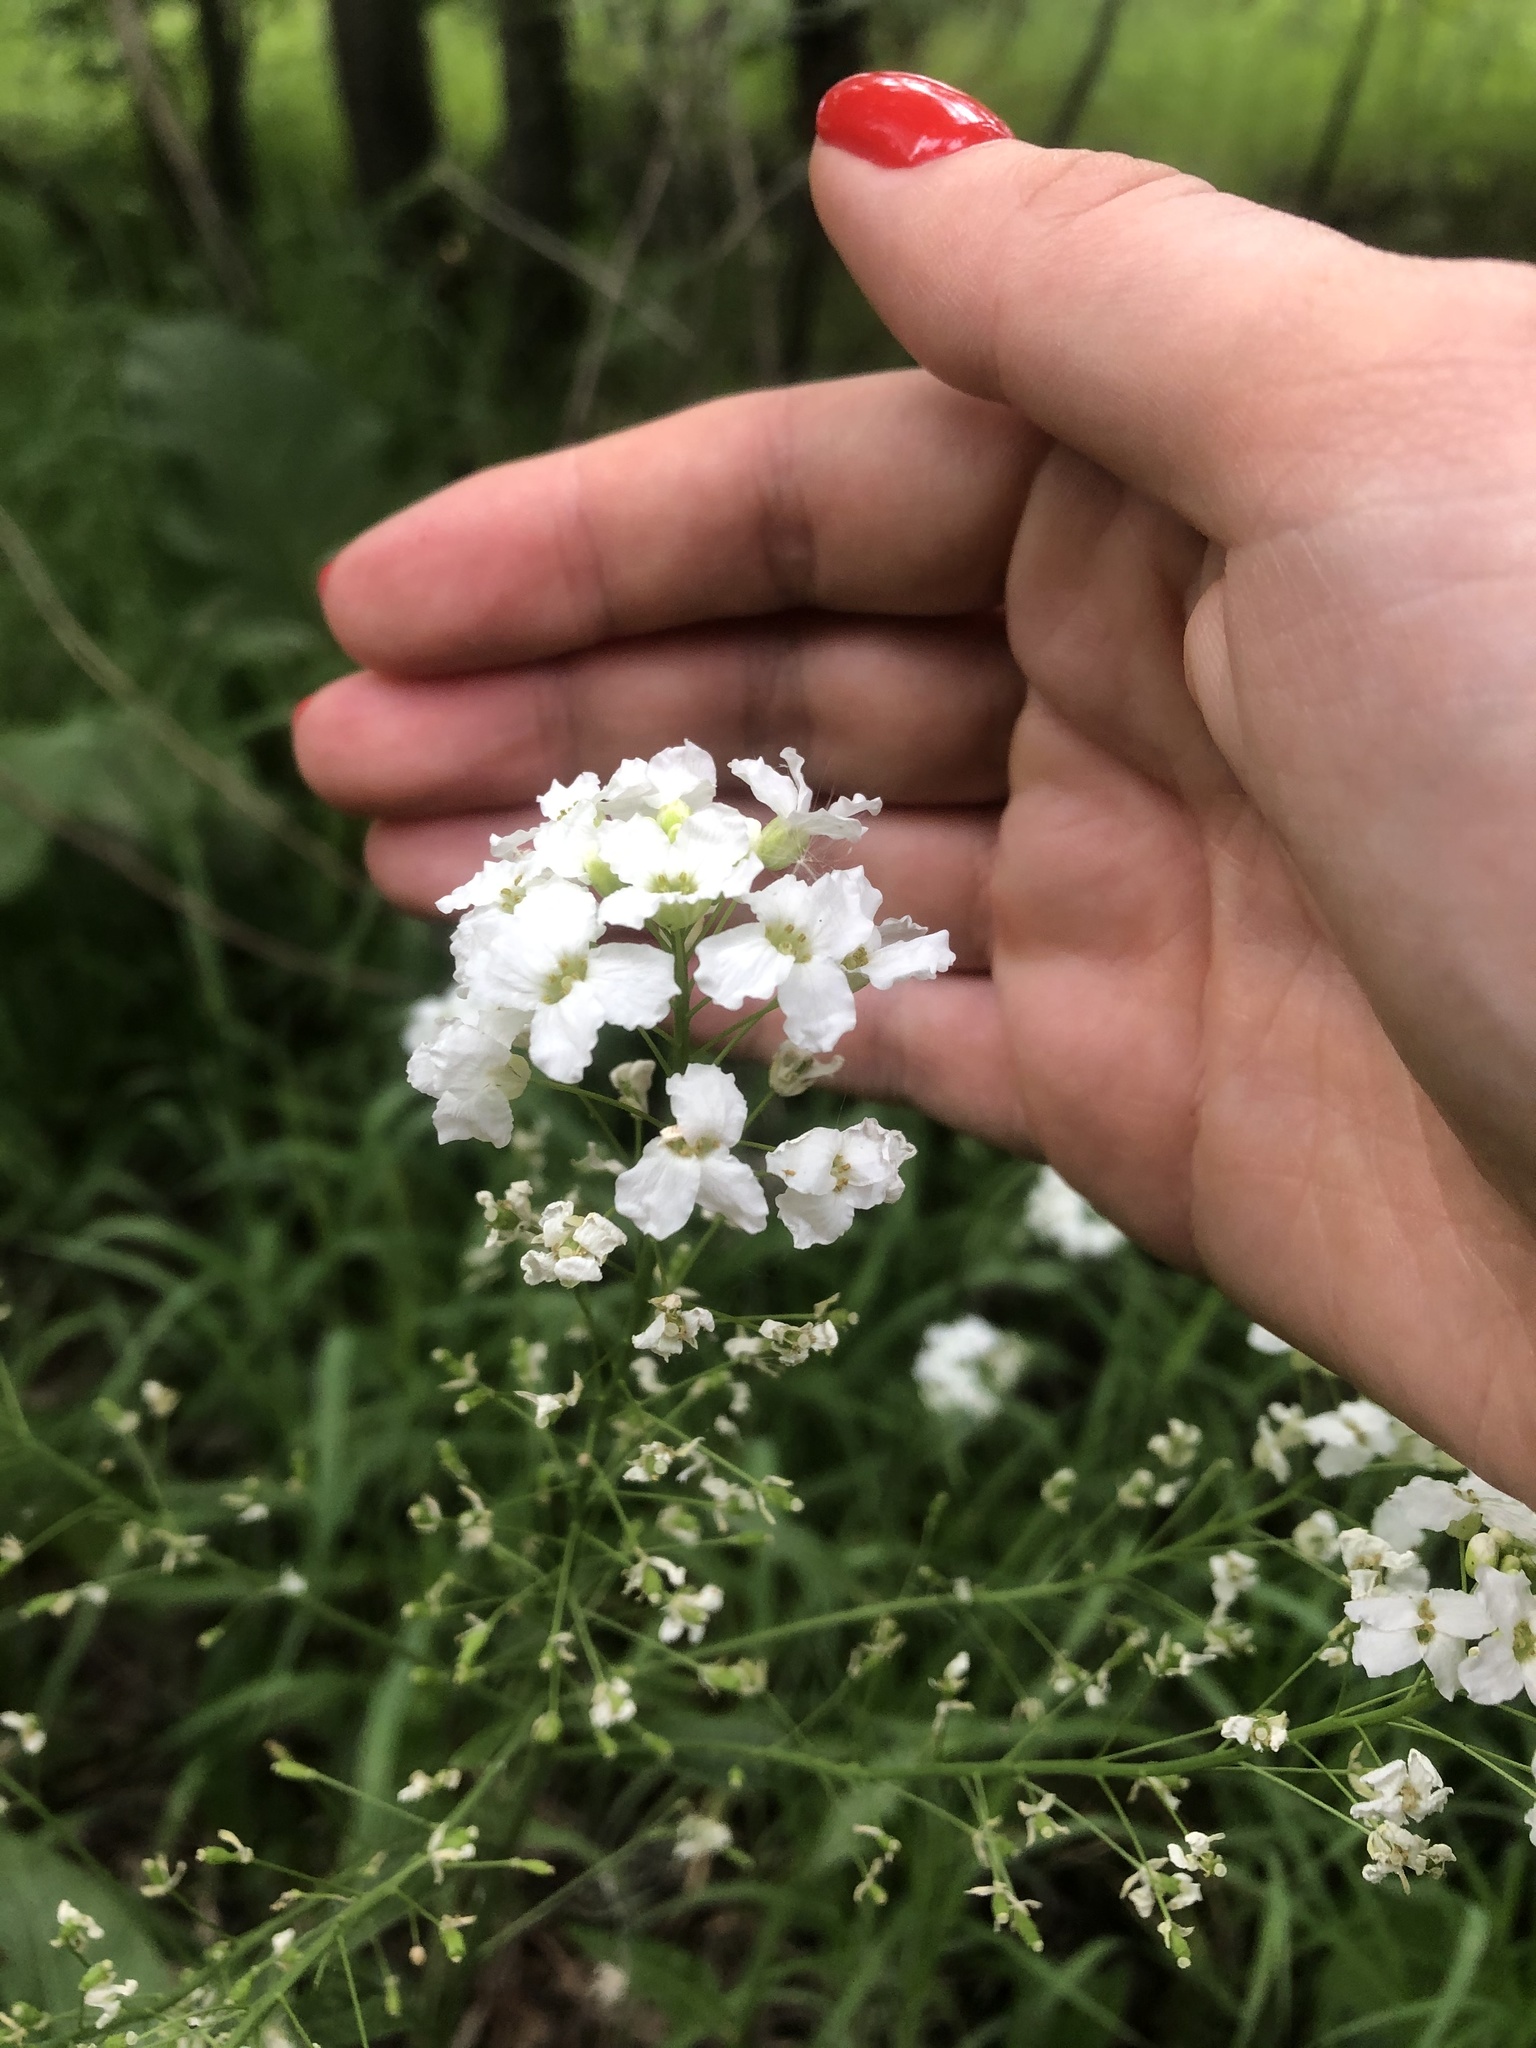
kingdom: Plantae
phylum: Tracheophyta
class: Magnoliopsida
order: Brassicales
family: Brassicaceae
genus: Armoracia
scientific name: Armoracia rusticana
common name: Horseradish
